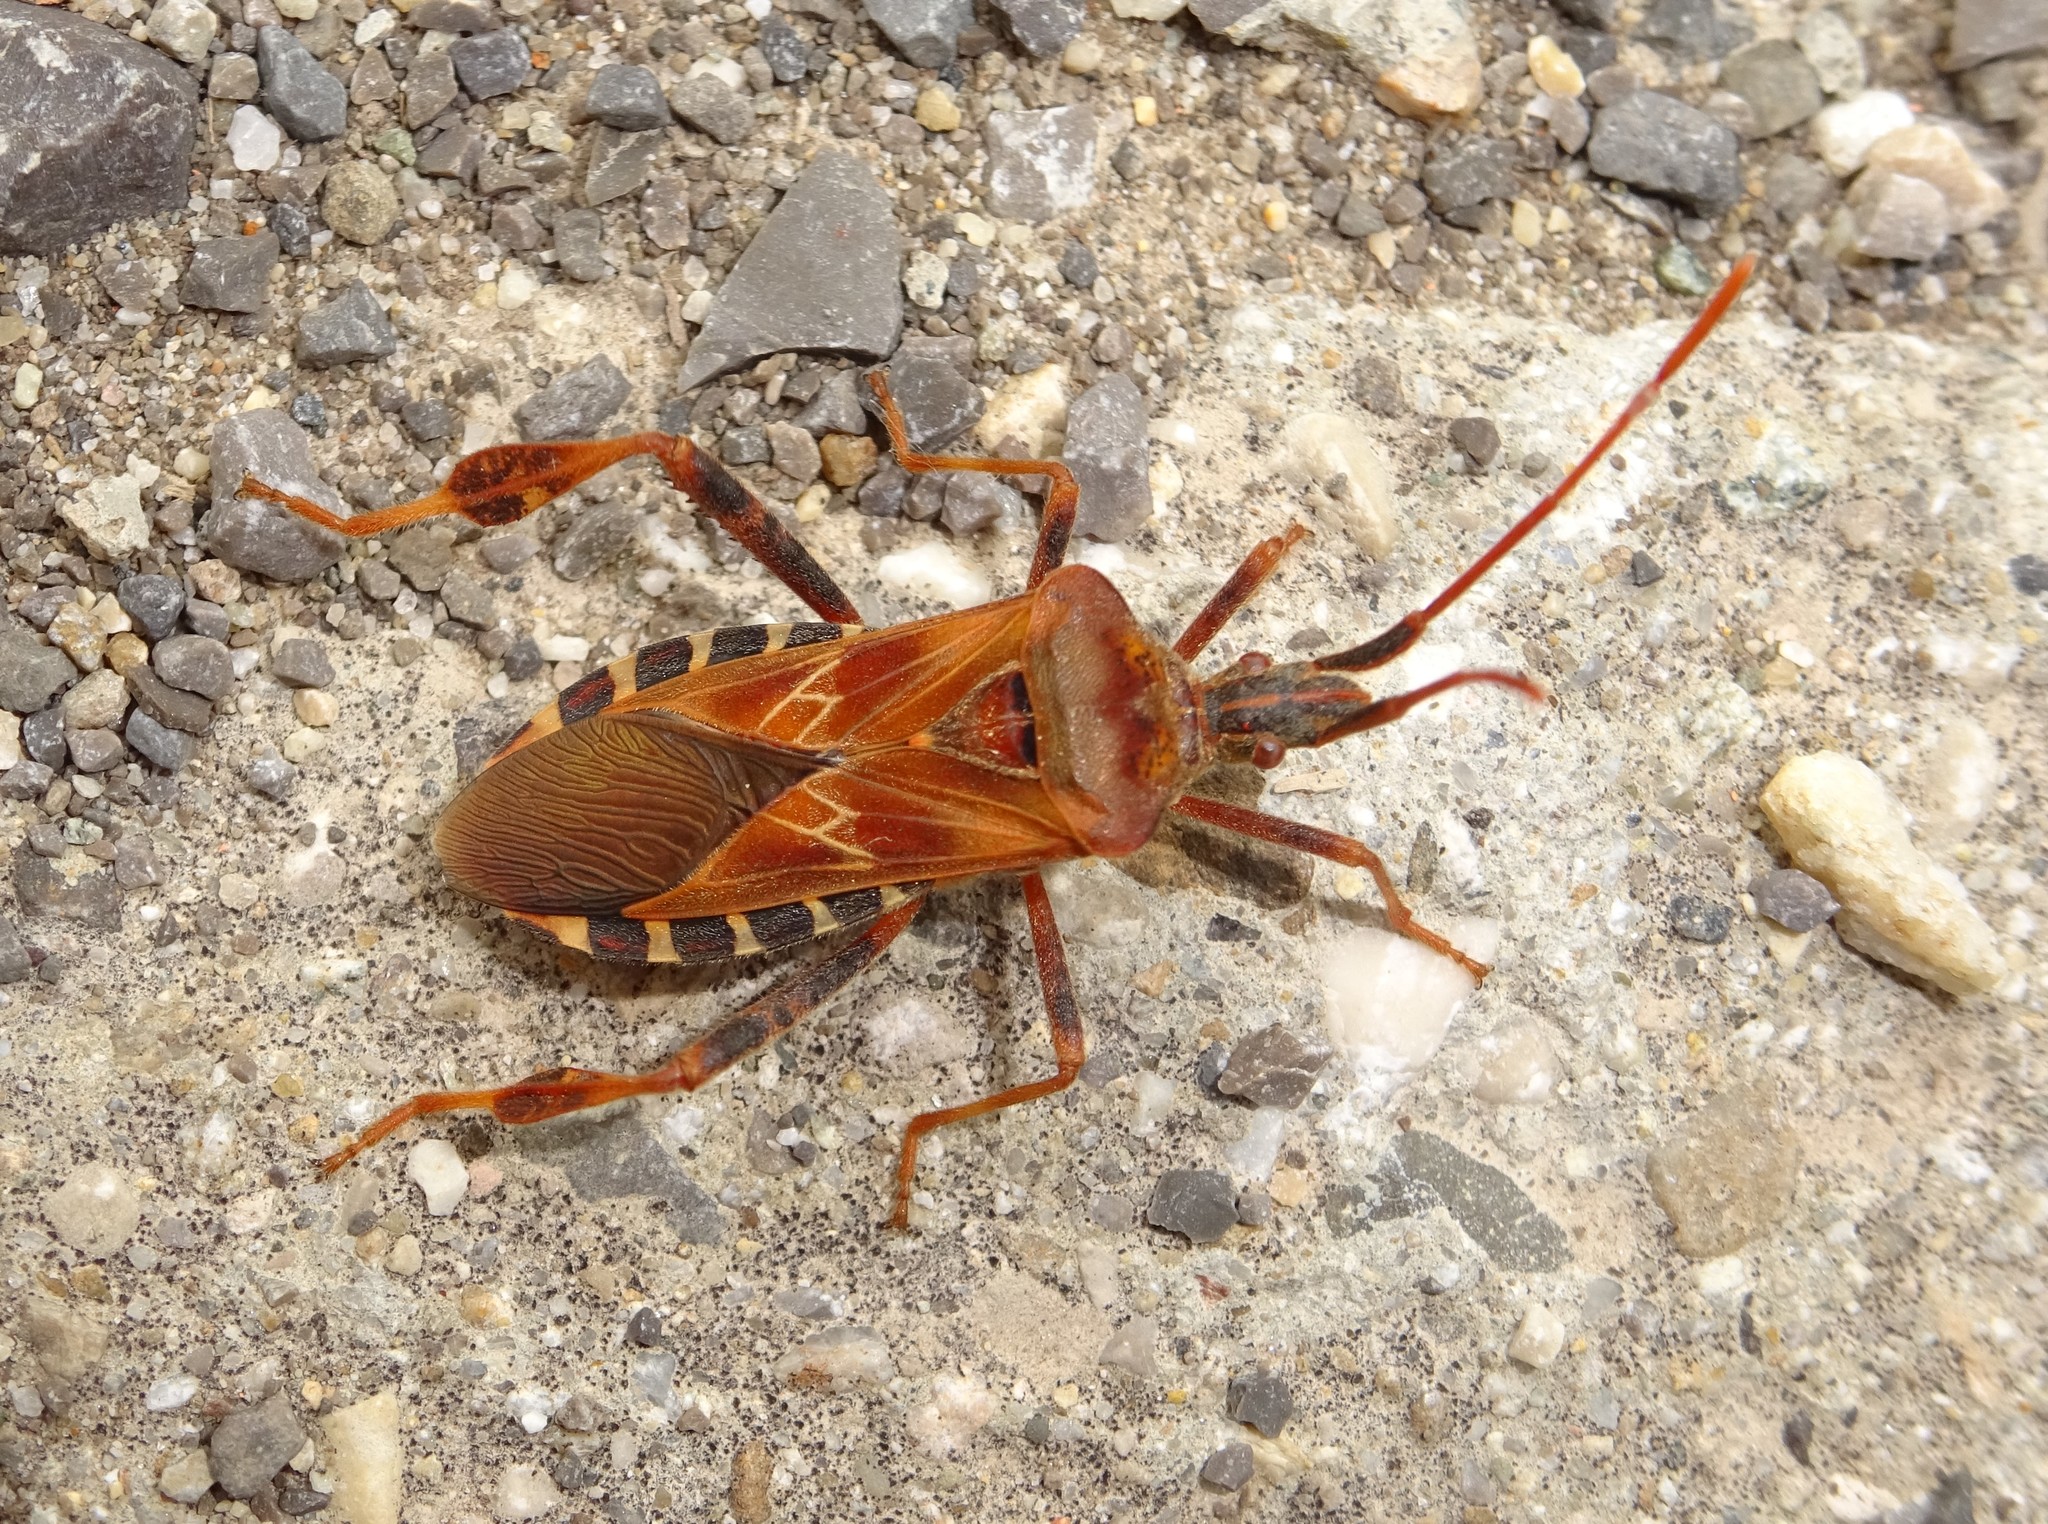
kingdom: Animalia
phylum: Arthropoda
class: Insecta
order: Hemiptera
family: Coreidae
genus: Leptoglossus
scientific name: Leptoglossus occidentalis
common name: Western conifer-seed bug
